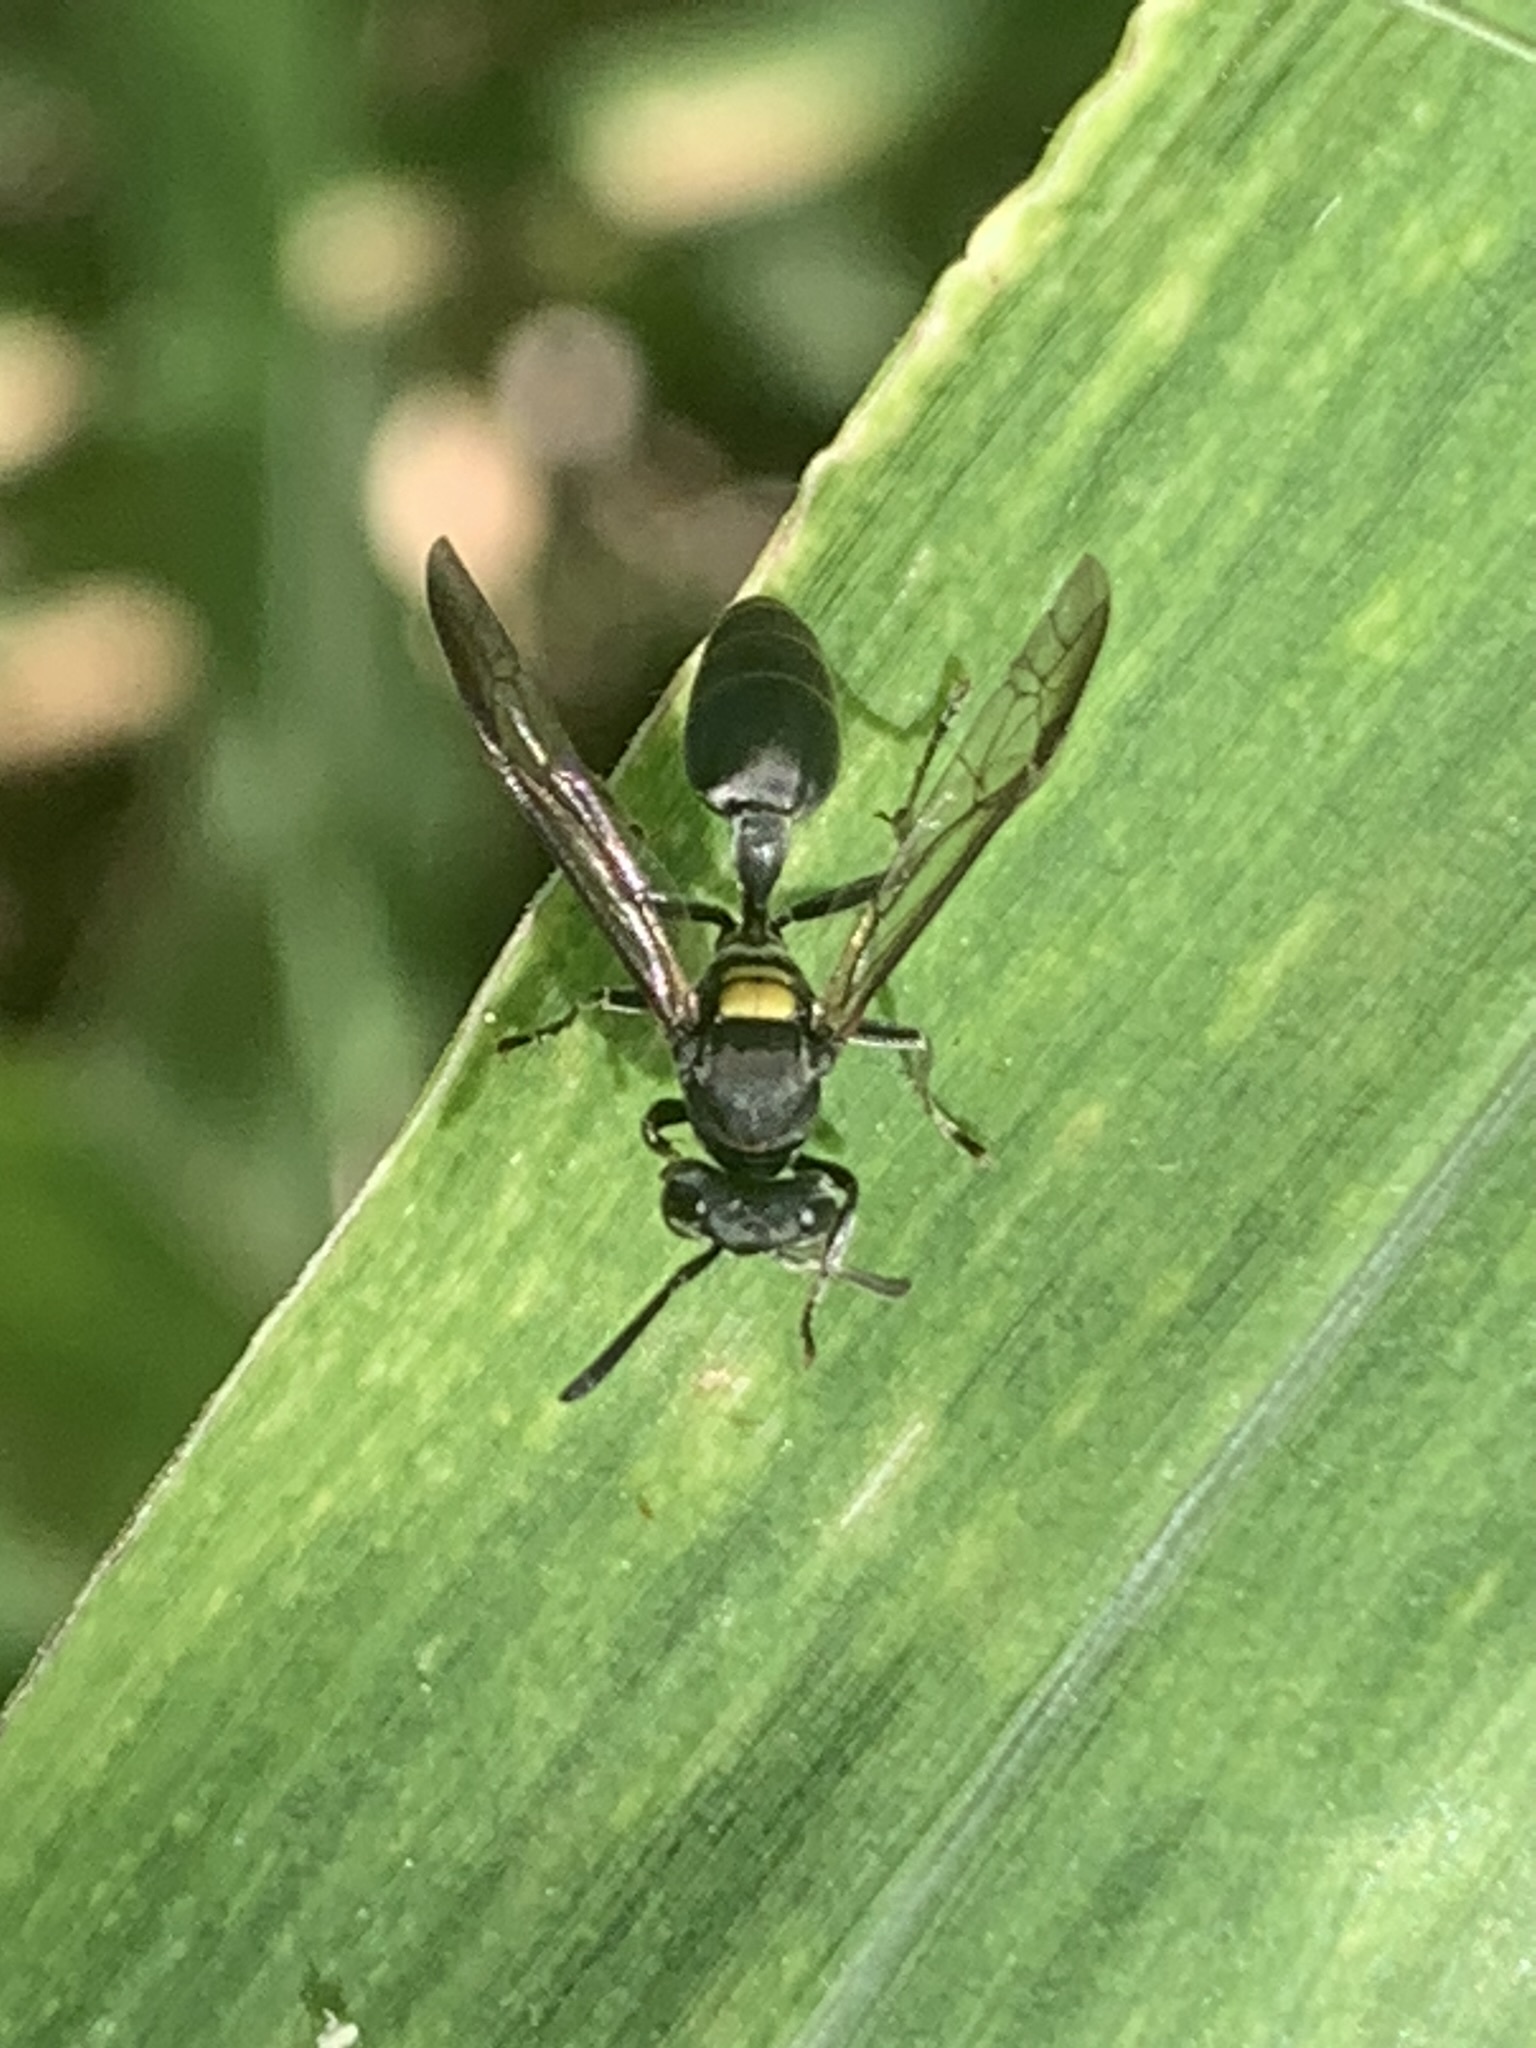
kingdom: Animalia
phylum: Arthropoda
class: Insecta
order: Hymenoptera
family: Eumenidae
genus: Polybia
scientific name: Polybia scutellaris
